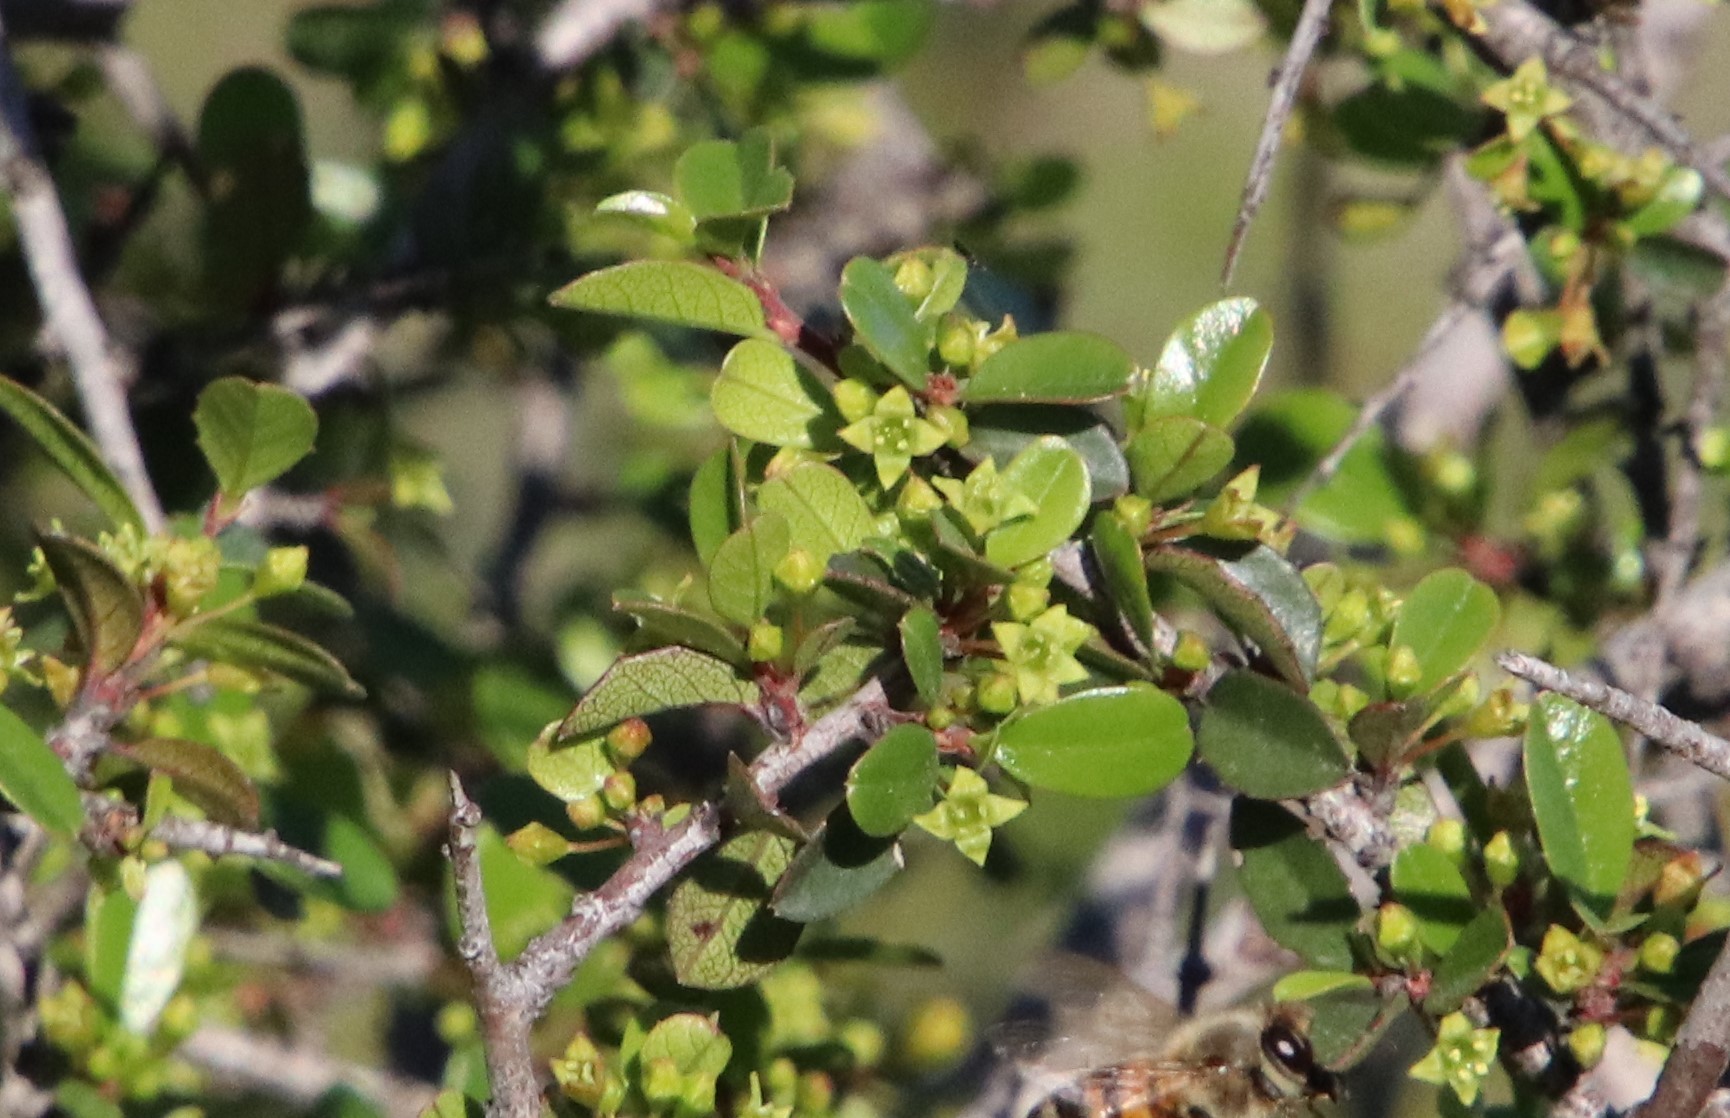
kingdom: Plantae
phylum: Tracheophyta
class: Magnoliopsida
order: Rosales
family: Rhamnaceae
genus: Endotropis
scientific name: Endotropis crocea
